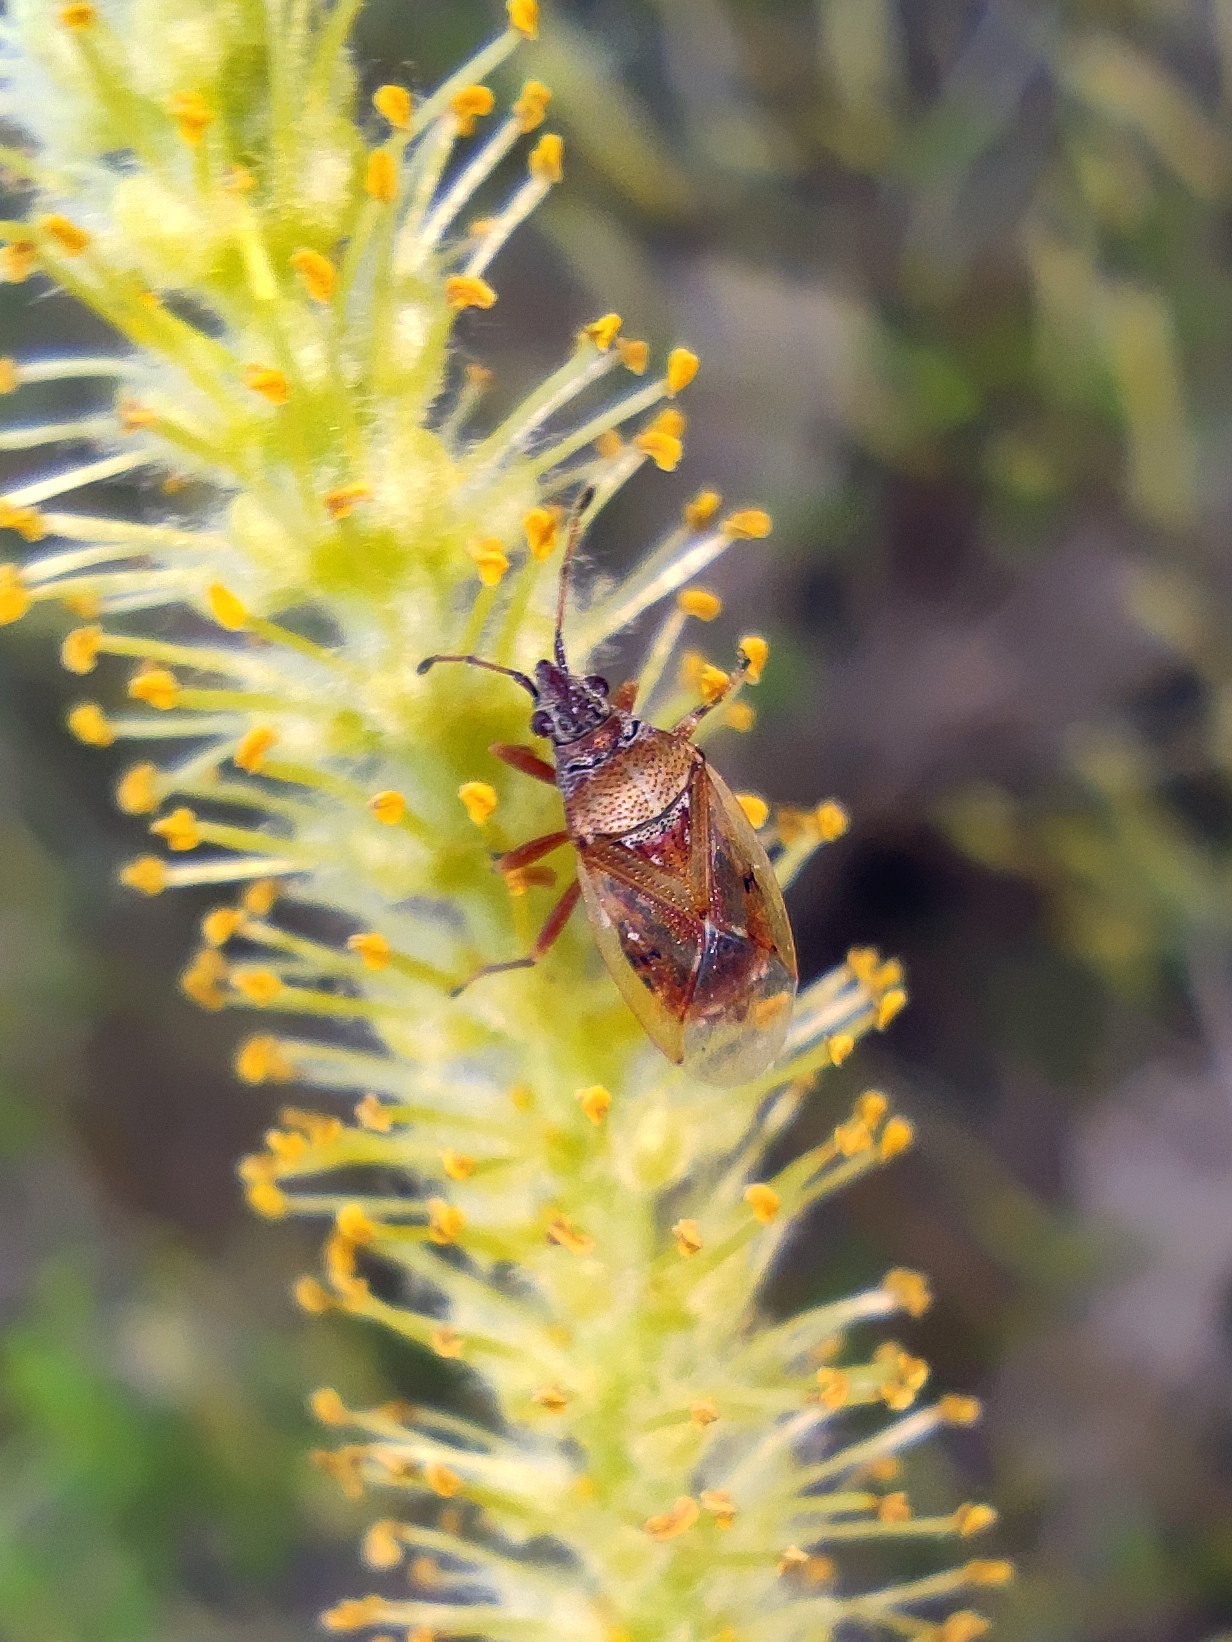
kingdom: Animalia
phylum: Arthropoda
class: Insecta
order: Hemiptera
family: Lygaeidae
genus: Kleidocerys
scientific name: Kleidocerys resedae
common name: Birch catkin bug
